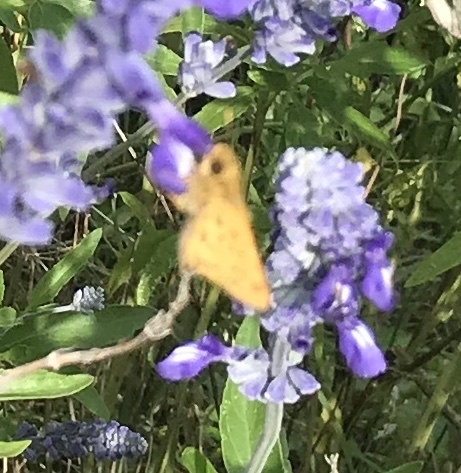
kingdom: Animalia
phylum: Arthropoda
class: Insecta
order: Lepidoptera
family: Hesperiidae
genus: Hylephila
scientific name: Hylephila phyleus
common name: Fiery skipper
